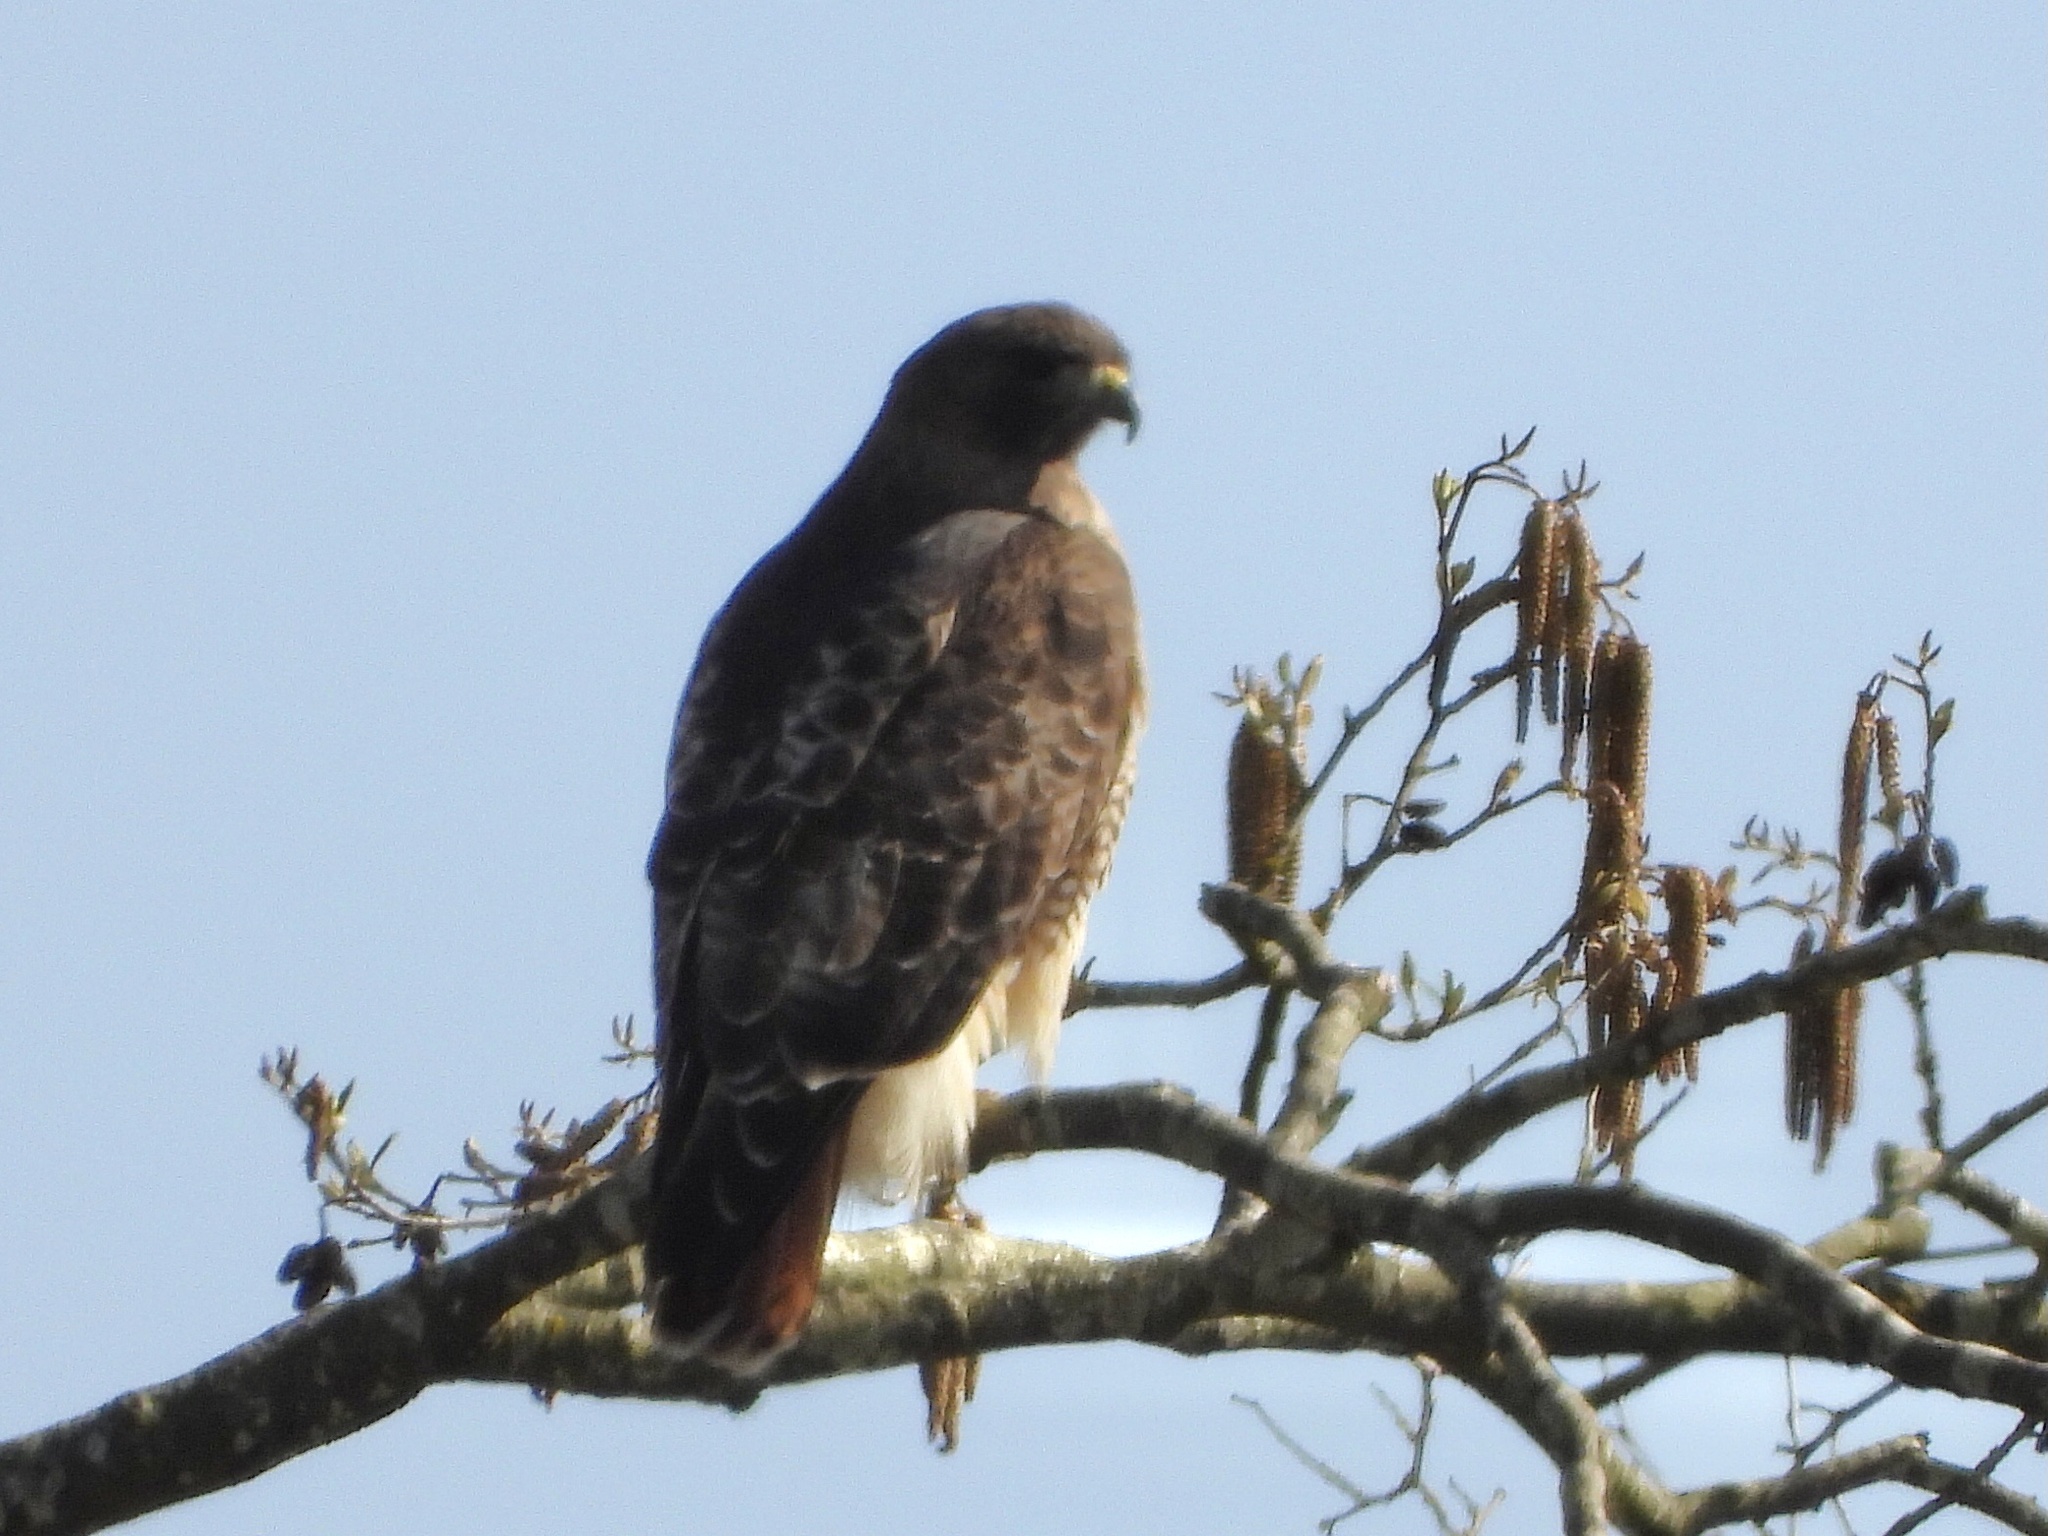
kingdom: Animalia
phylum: Chordata
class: Aves
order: Accipitriformes
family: Accipitridae
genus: Buteo
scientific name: Buteo jamaicensis
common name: Red-tailed hawk
